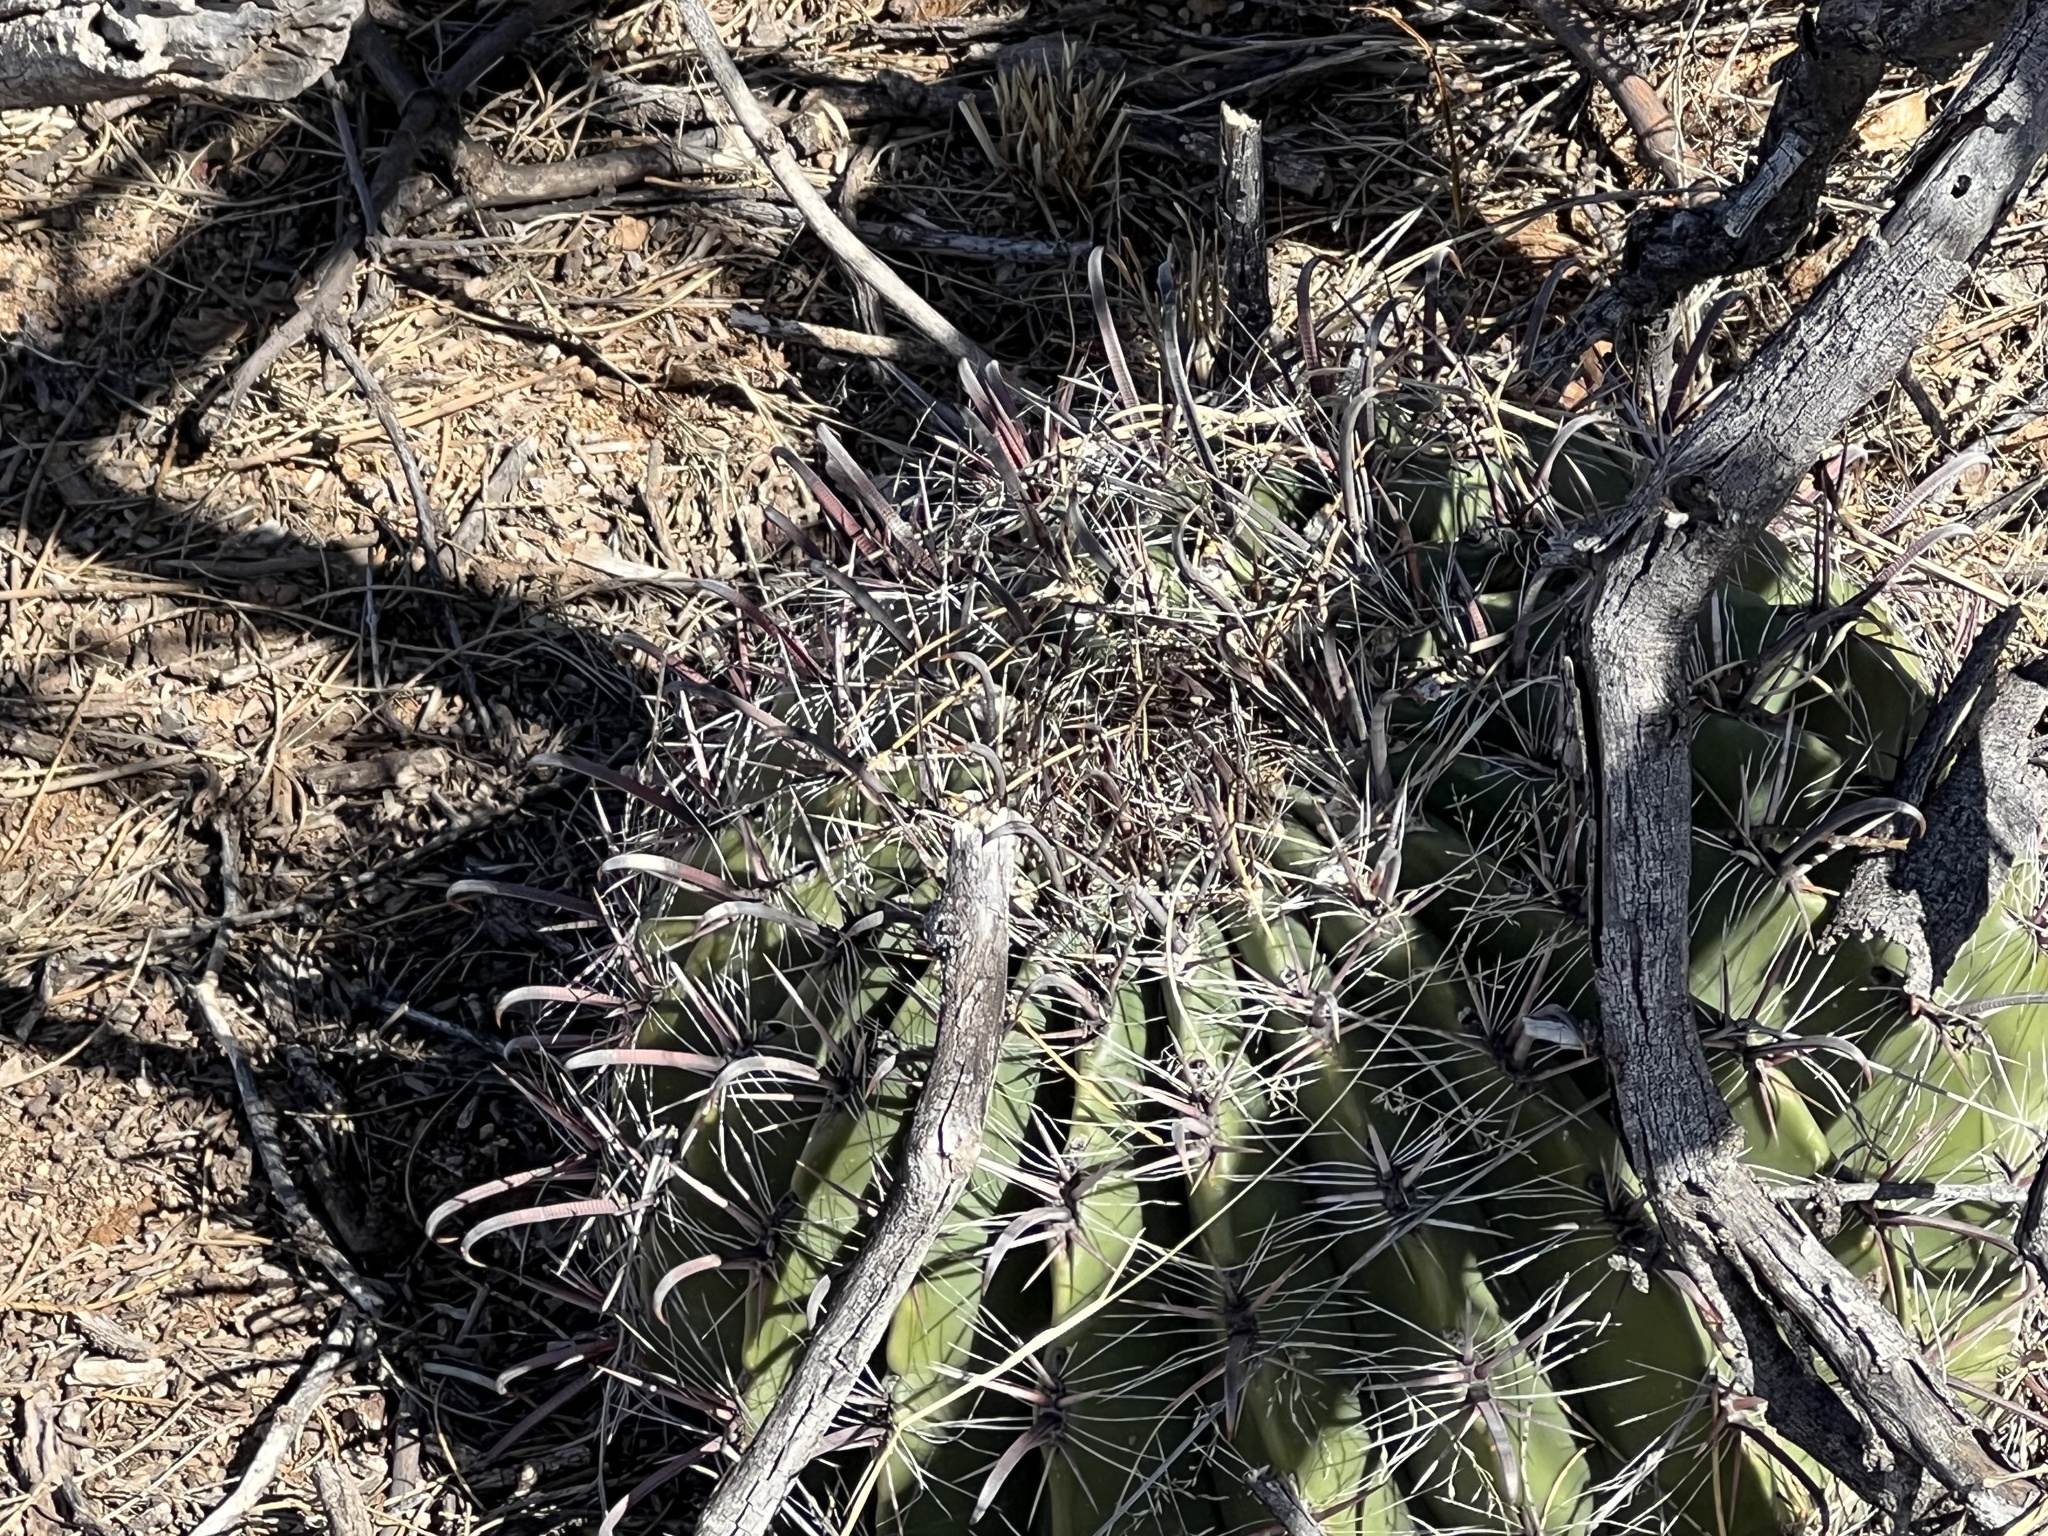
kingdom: Plantae
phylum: Tracheophyta
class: Magnoliopsida
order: Caryophyllales
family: Cactaceae
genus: Ferocactus
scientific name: Ferocactus wislizeni
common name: Candy barrel cactus
